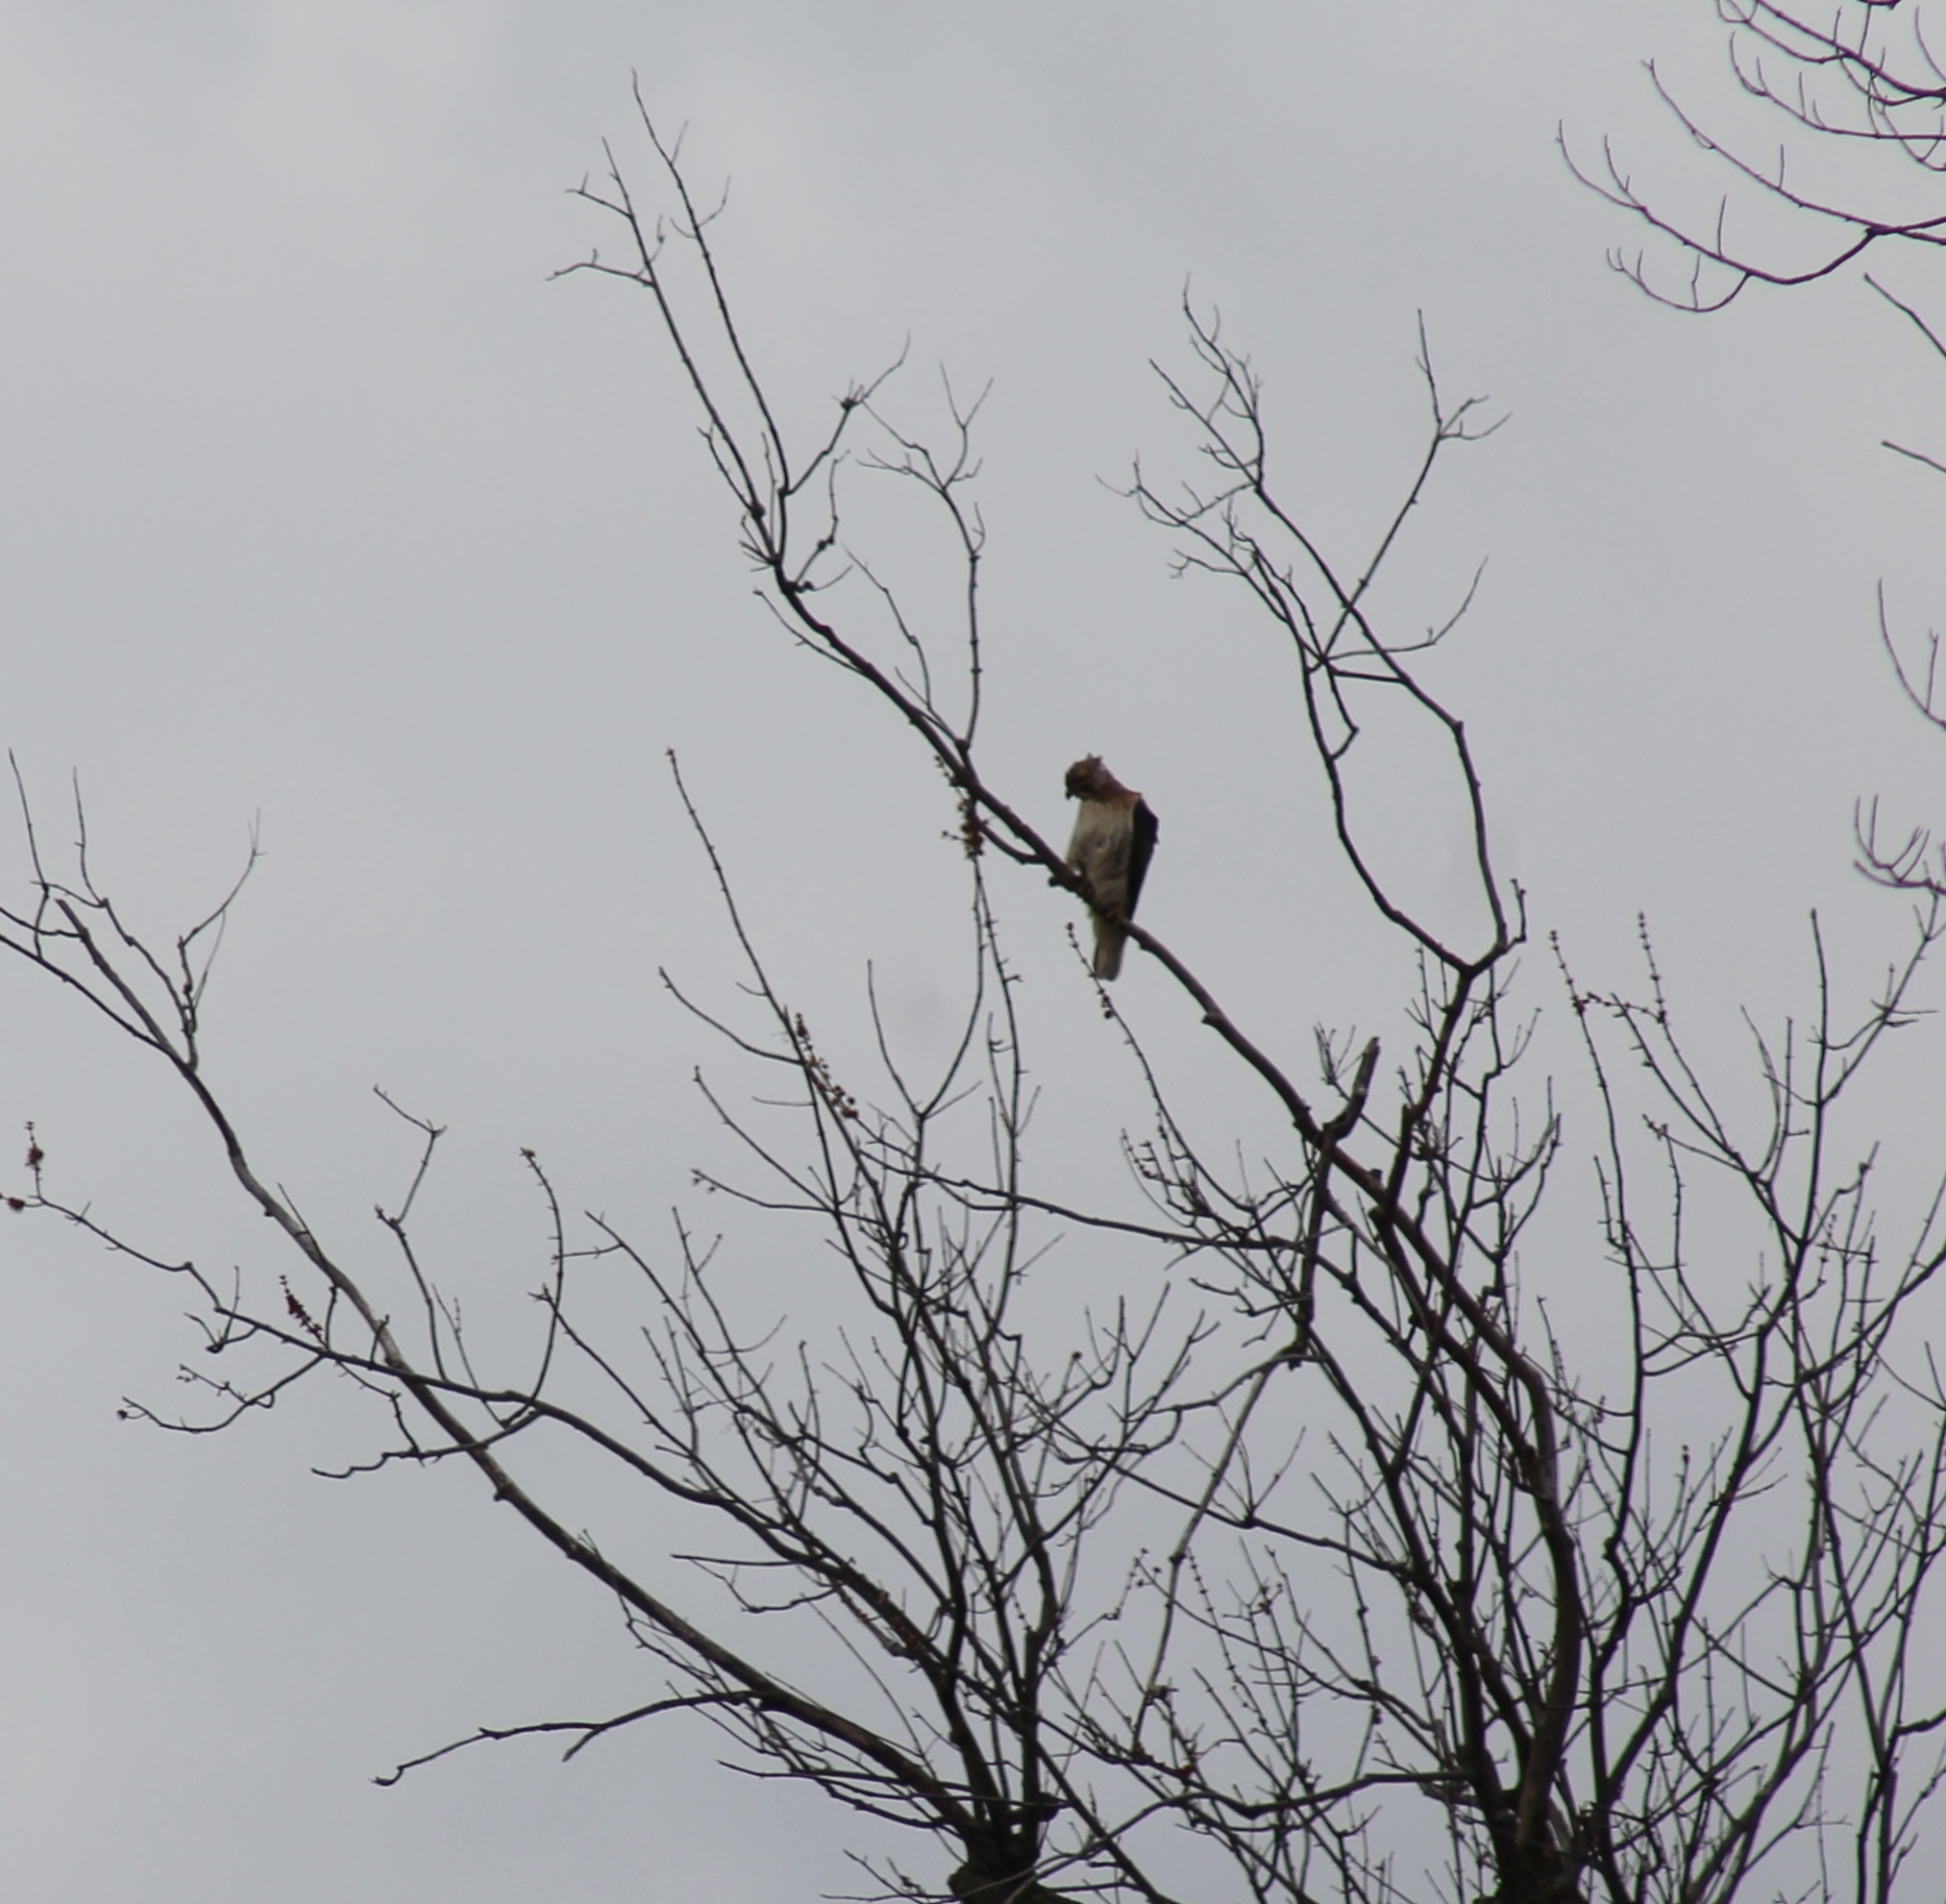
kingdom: Animalia
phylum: Chordata
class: Aves
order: Accipitriformes
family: Accipitridae
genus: Buteo
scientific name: Buteo jamaicensis
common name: Red-tailed hawk
